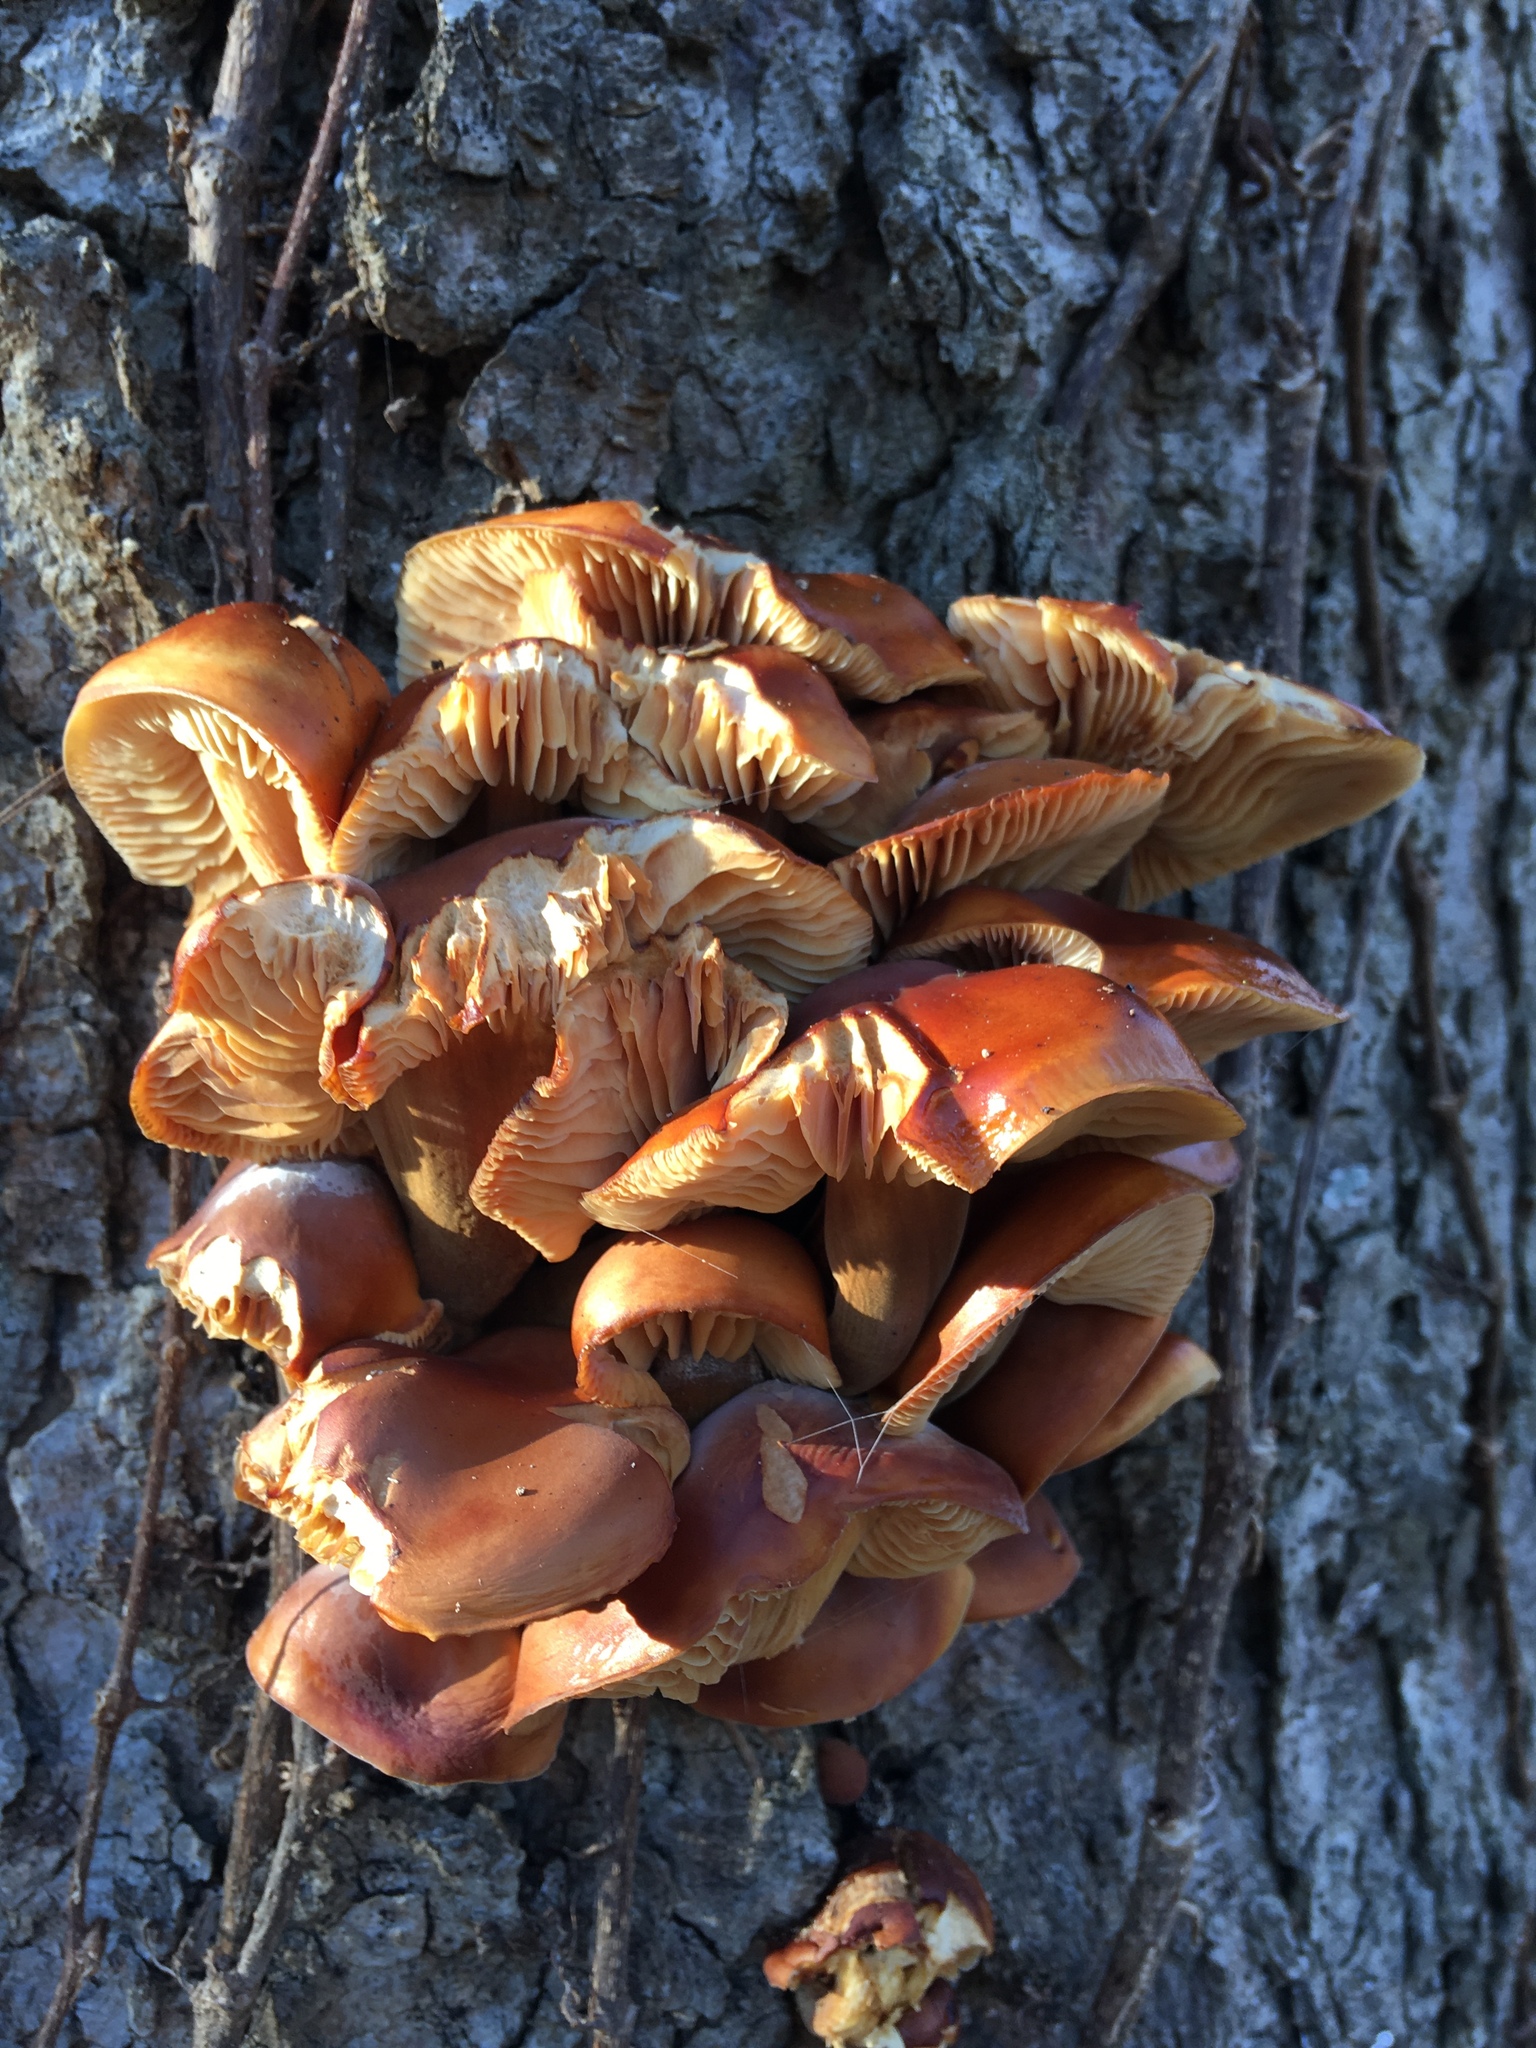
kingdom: Fungi
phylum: Basidiomycota
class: Agaricomycetes
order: Agaricales
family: Physalacriaceae
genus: Flammulina
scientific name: Flammulina velutipes
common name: Velvet shank
